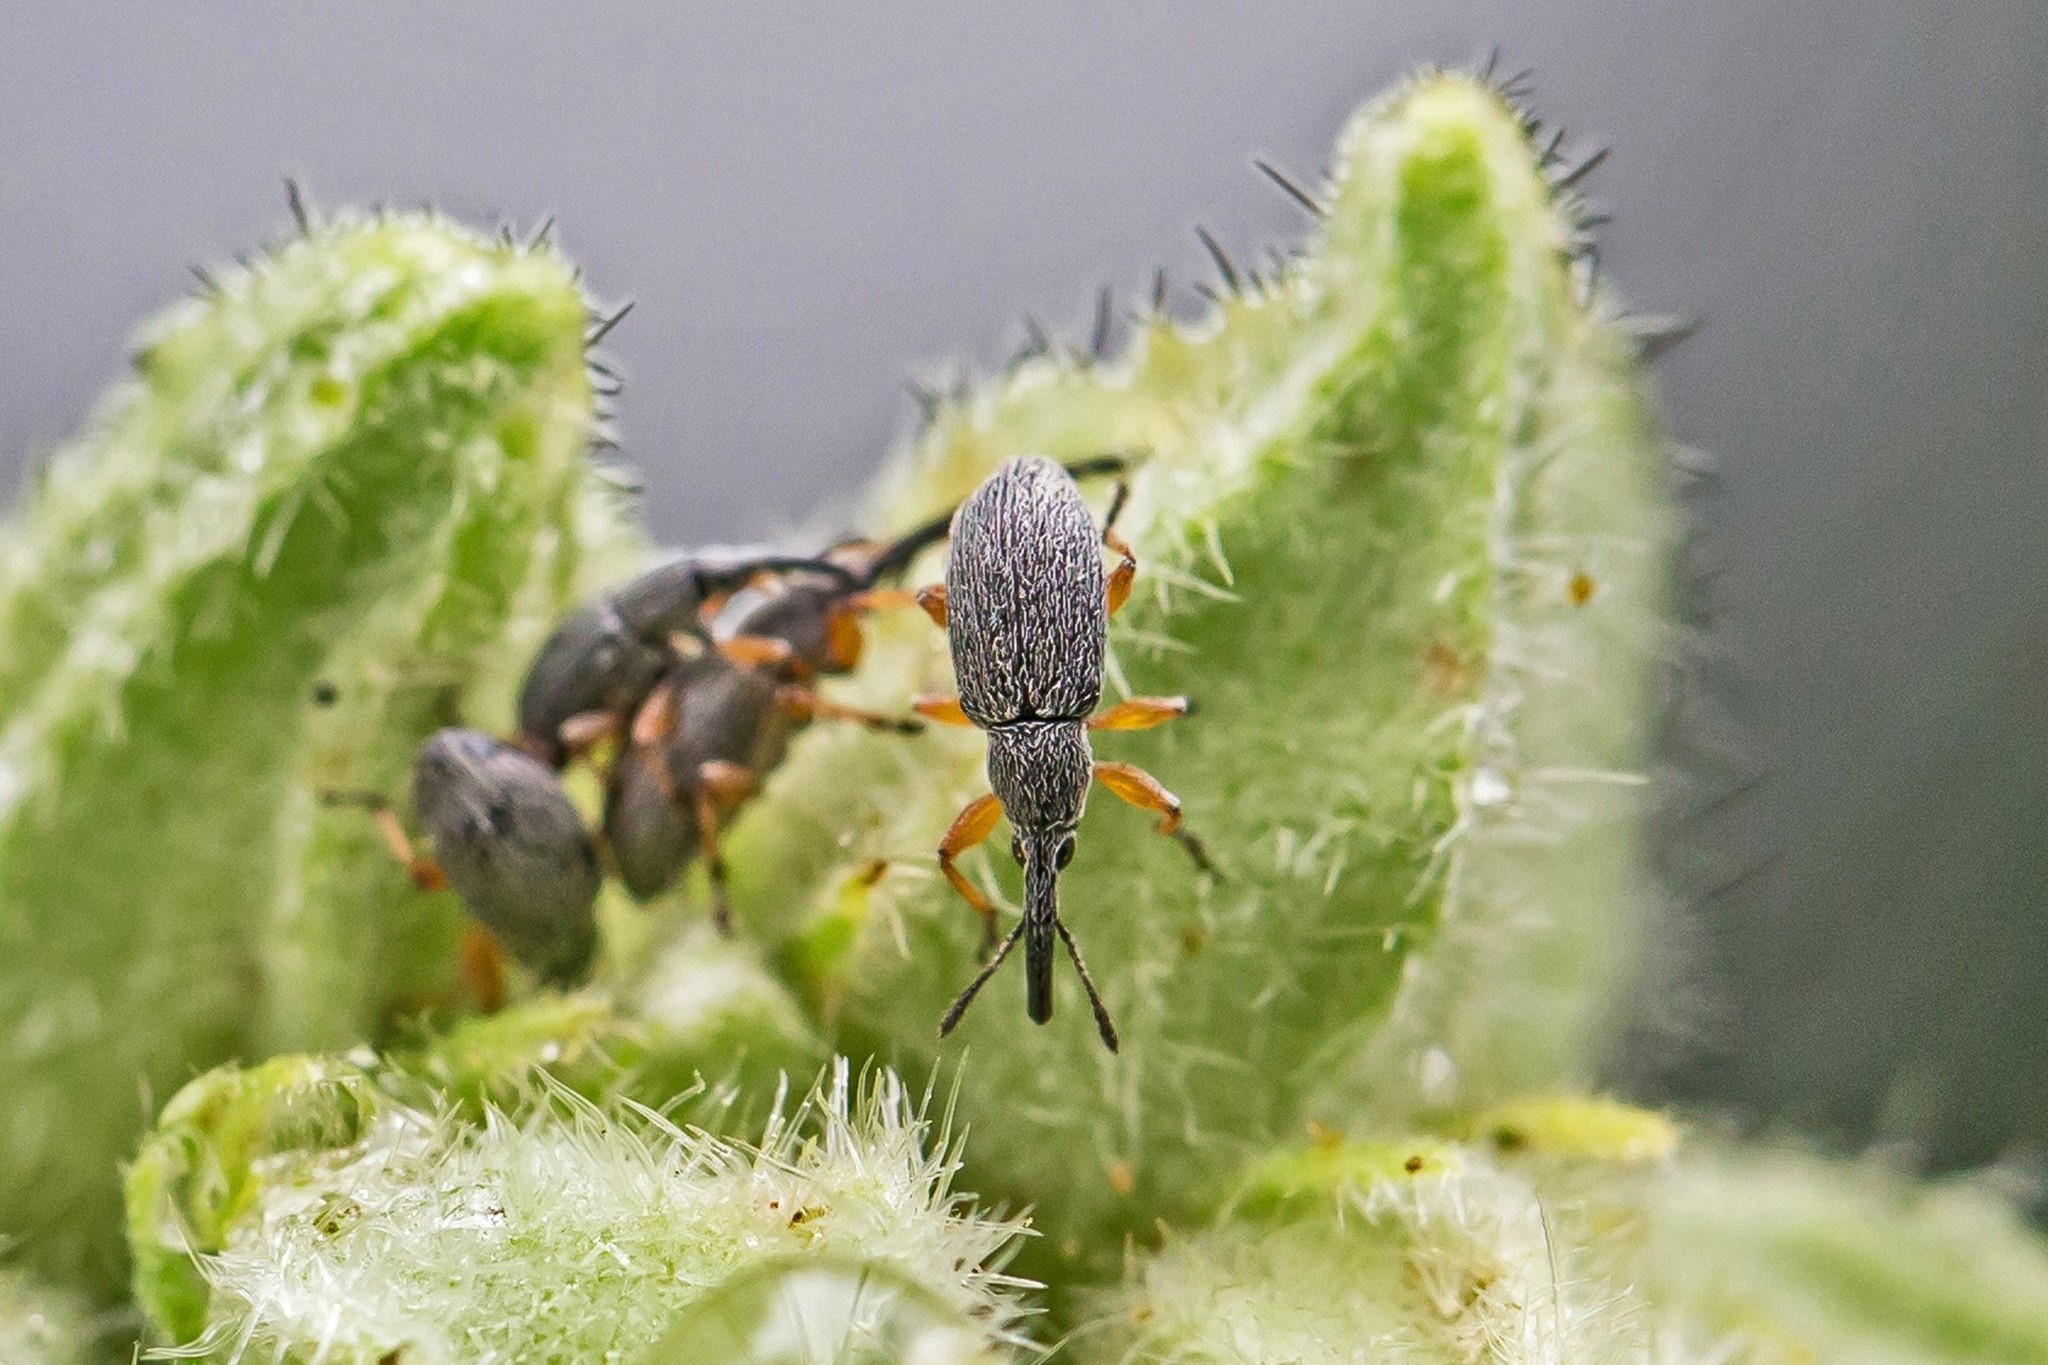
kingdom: Animalia
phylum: Arthropoda
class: Insecta
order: Coleoptera
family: Brentidae
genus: Rhopalapion
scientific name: Rhopalapion longirostre
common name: Hollyhock weevil
